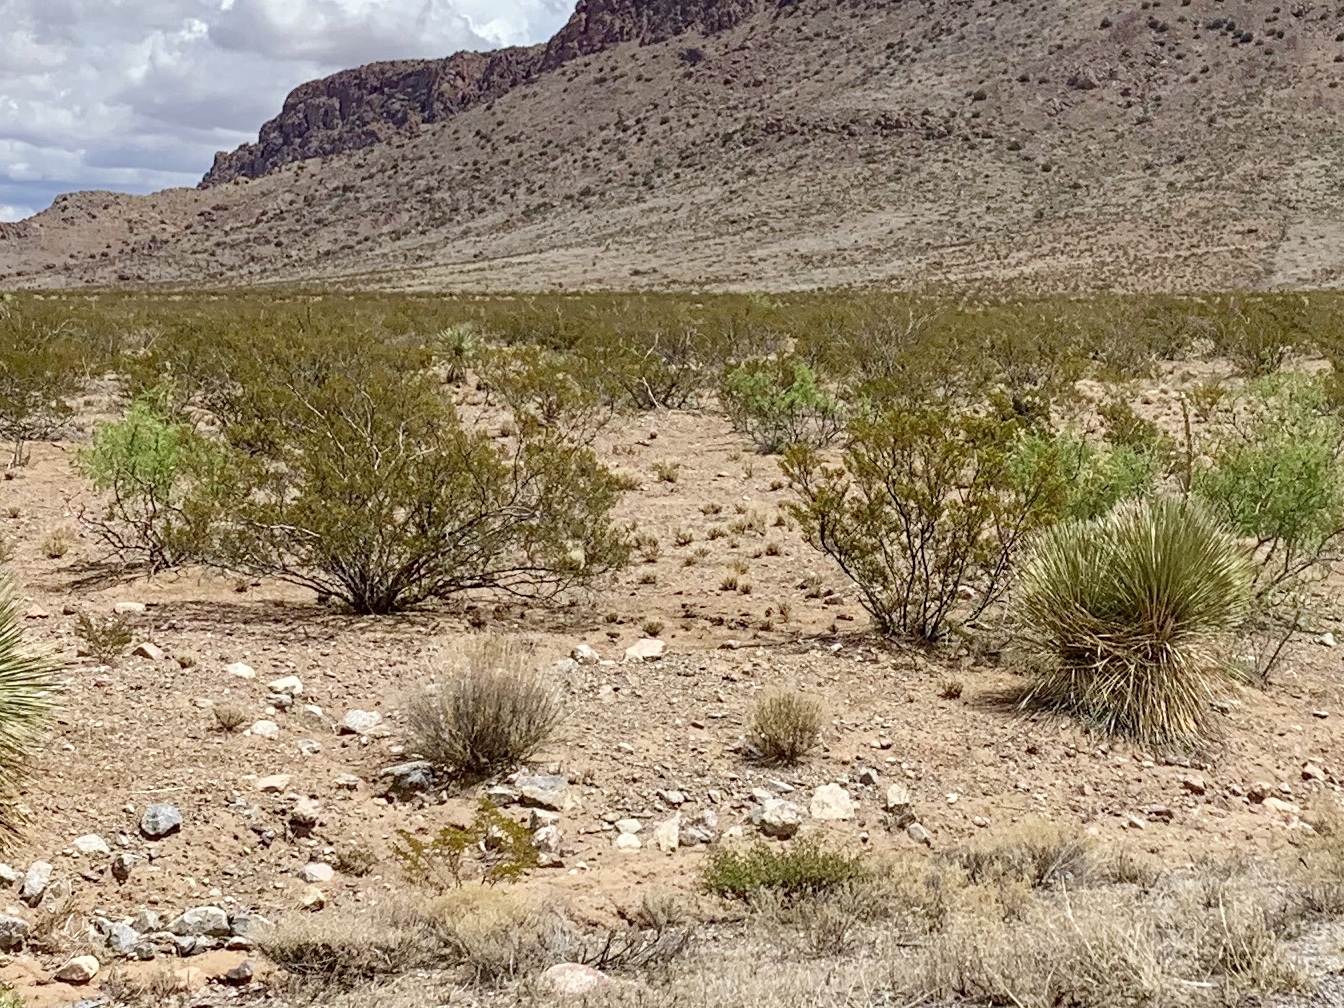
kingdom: Plantae
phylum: Tracheophyta
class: Magnoliopsida
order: Zygophyllales
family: Zygophyllaceae
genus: Larrea
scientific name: Larrea tridentata
